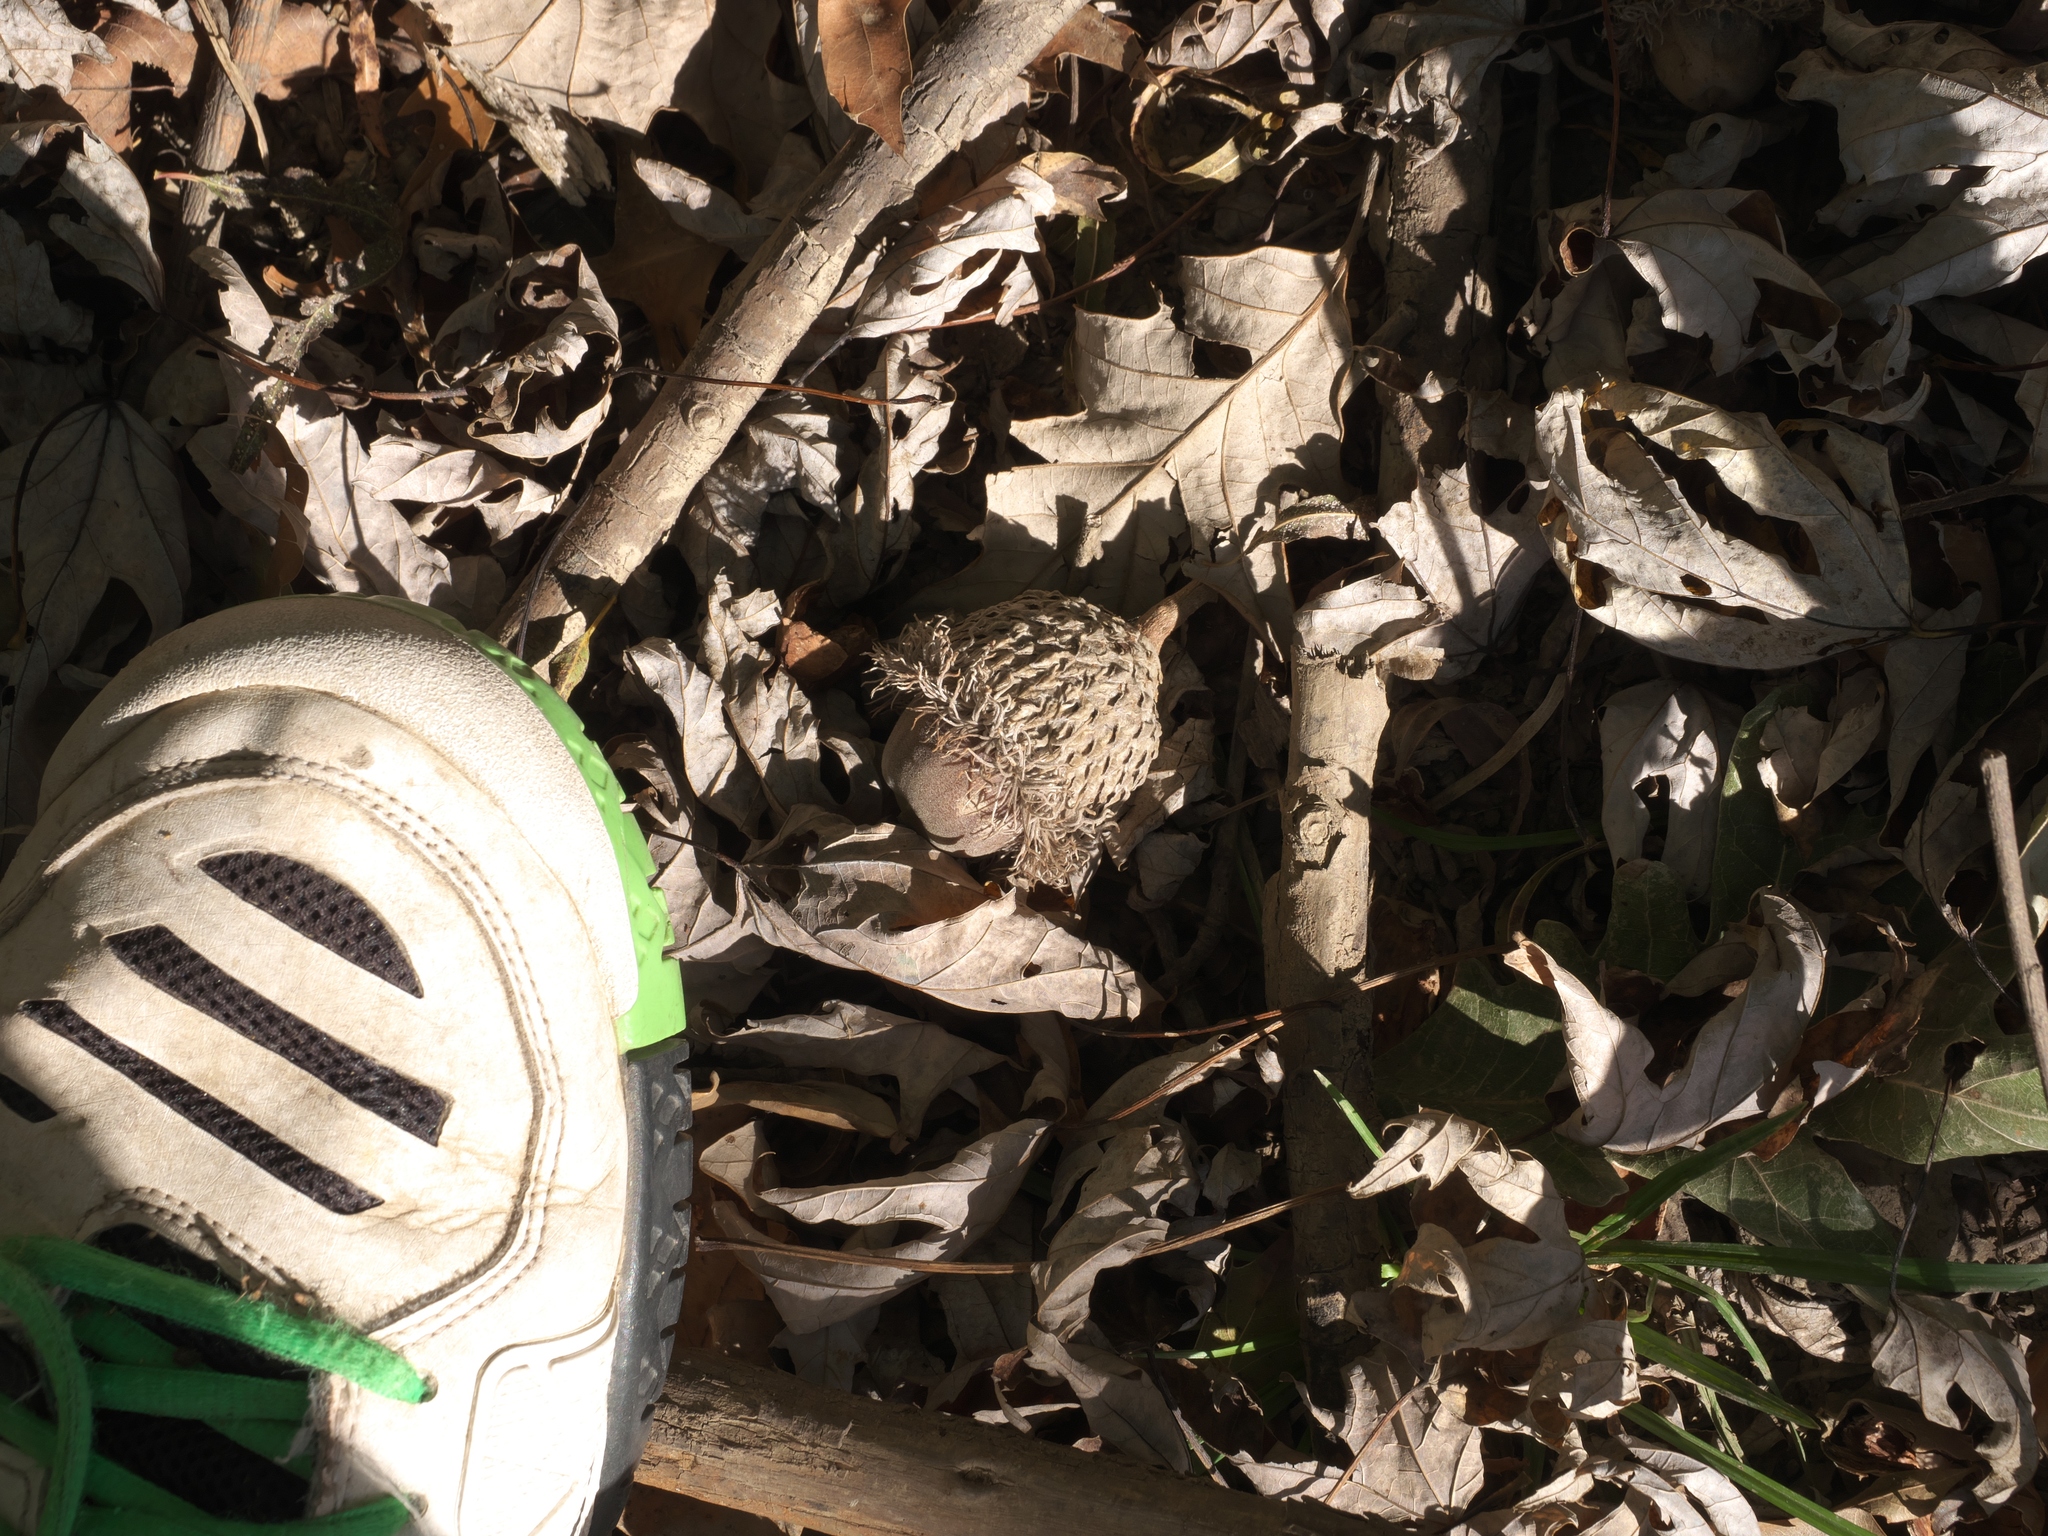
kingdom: Plantae
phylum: Tracheophyta
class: Magnoliopsida
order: Fagales
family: Fagaceae
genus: Quercus
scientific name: Quercus macrocarpa
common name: Bur oak
